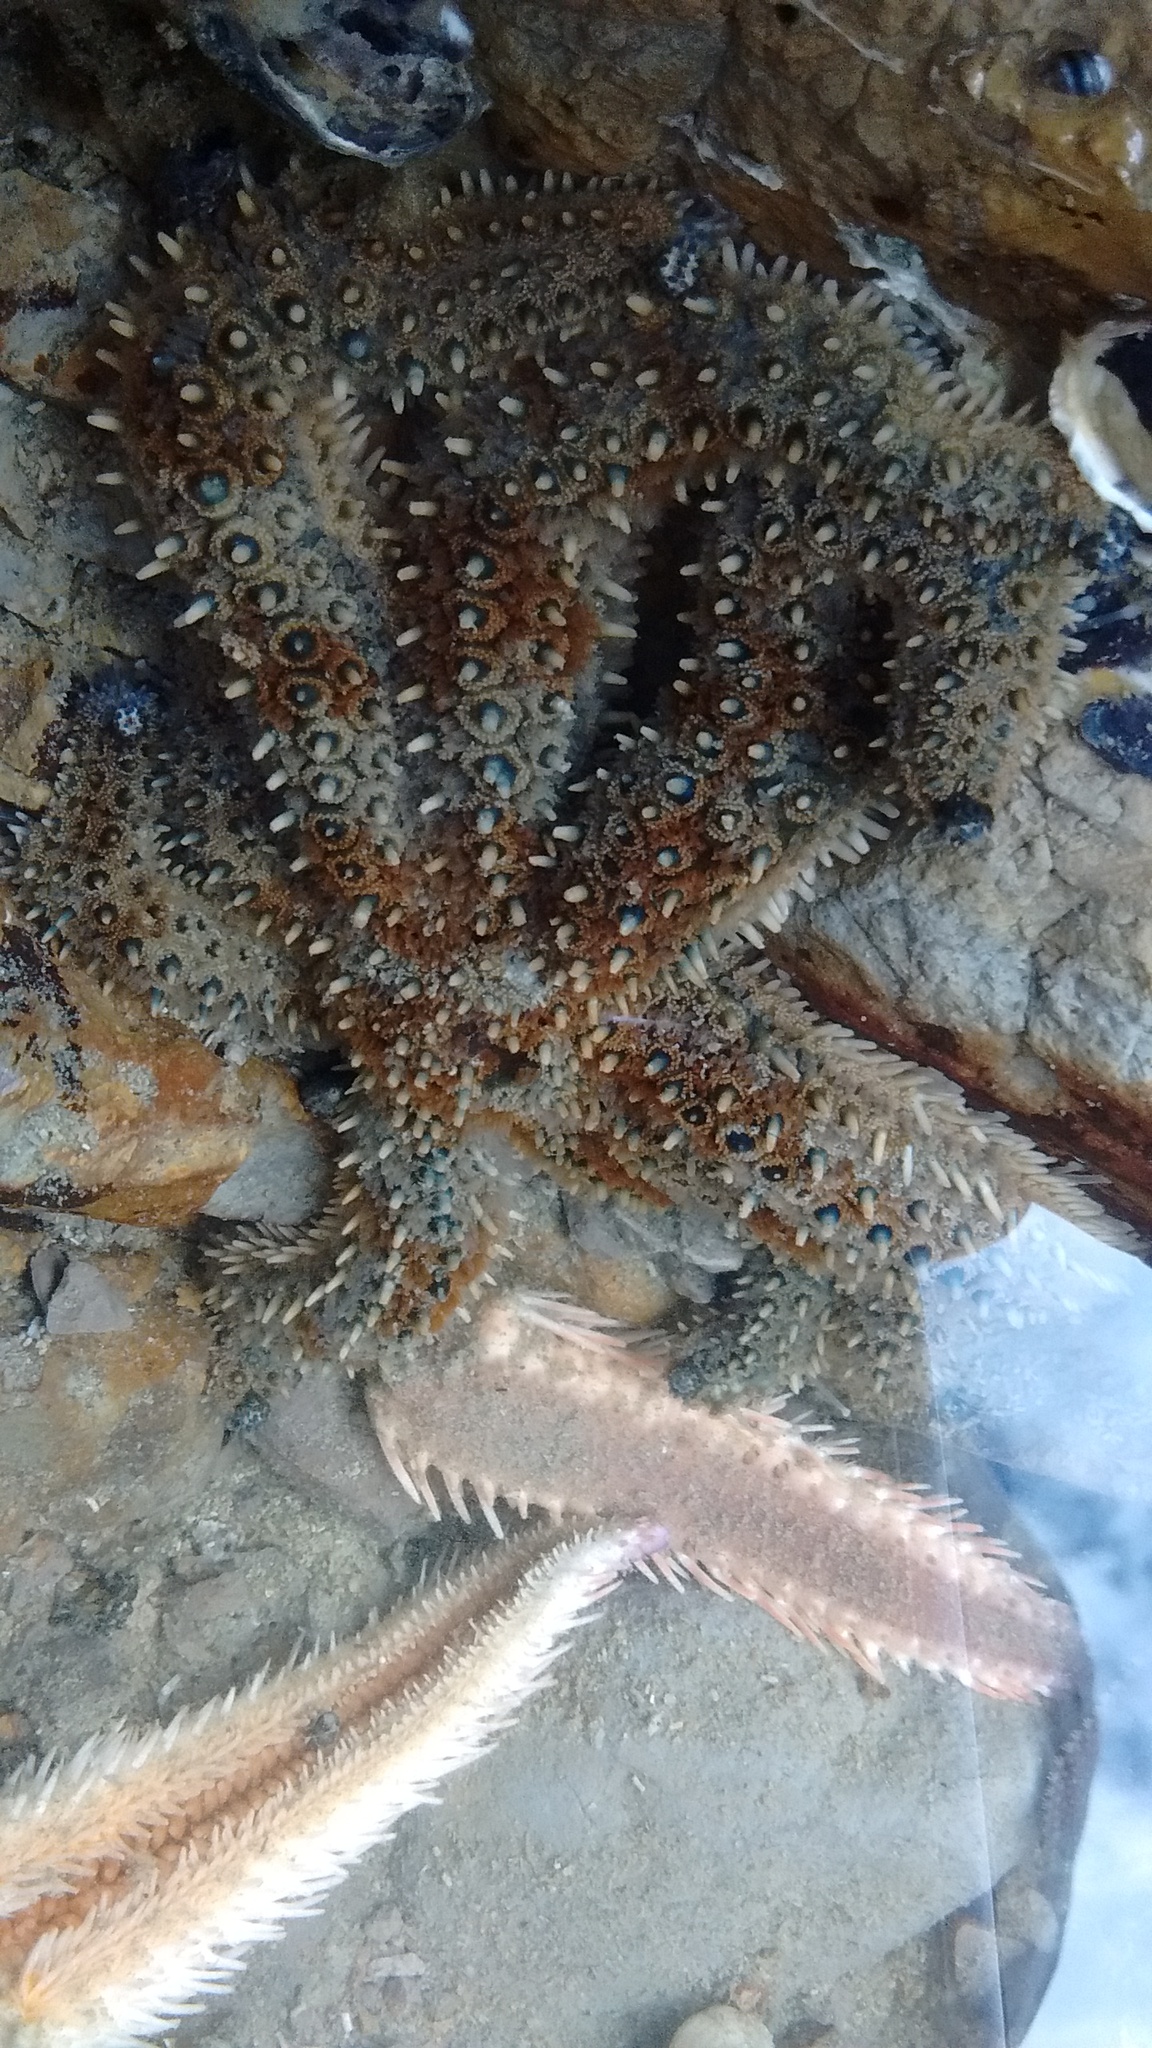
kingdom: Animalia
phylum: Echinodermata
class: Asteroidea
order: Paxillosida
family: Astropectinidae
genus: Astropecten
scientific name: Astropecten polyacanthus
